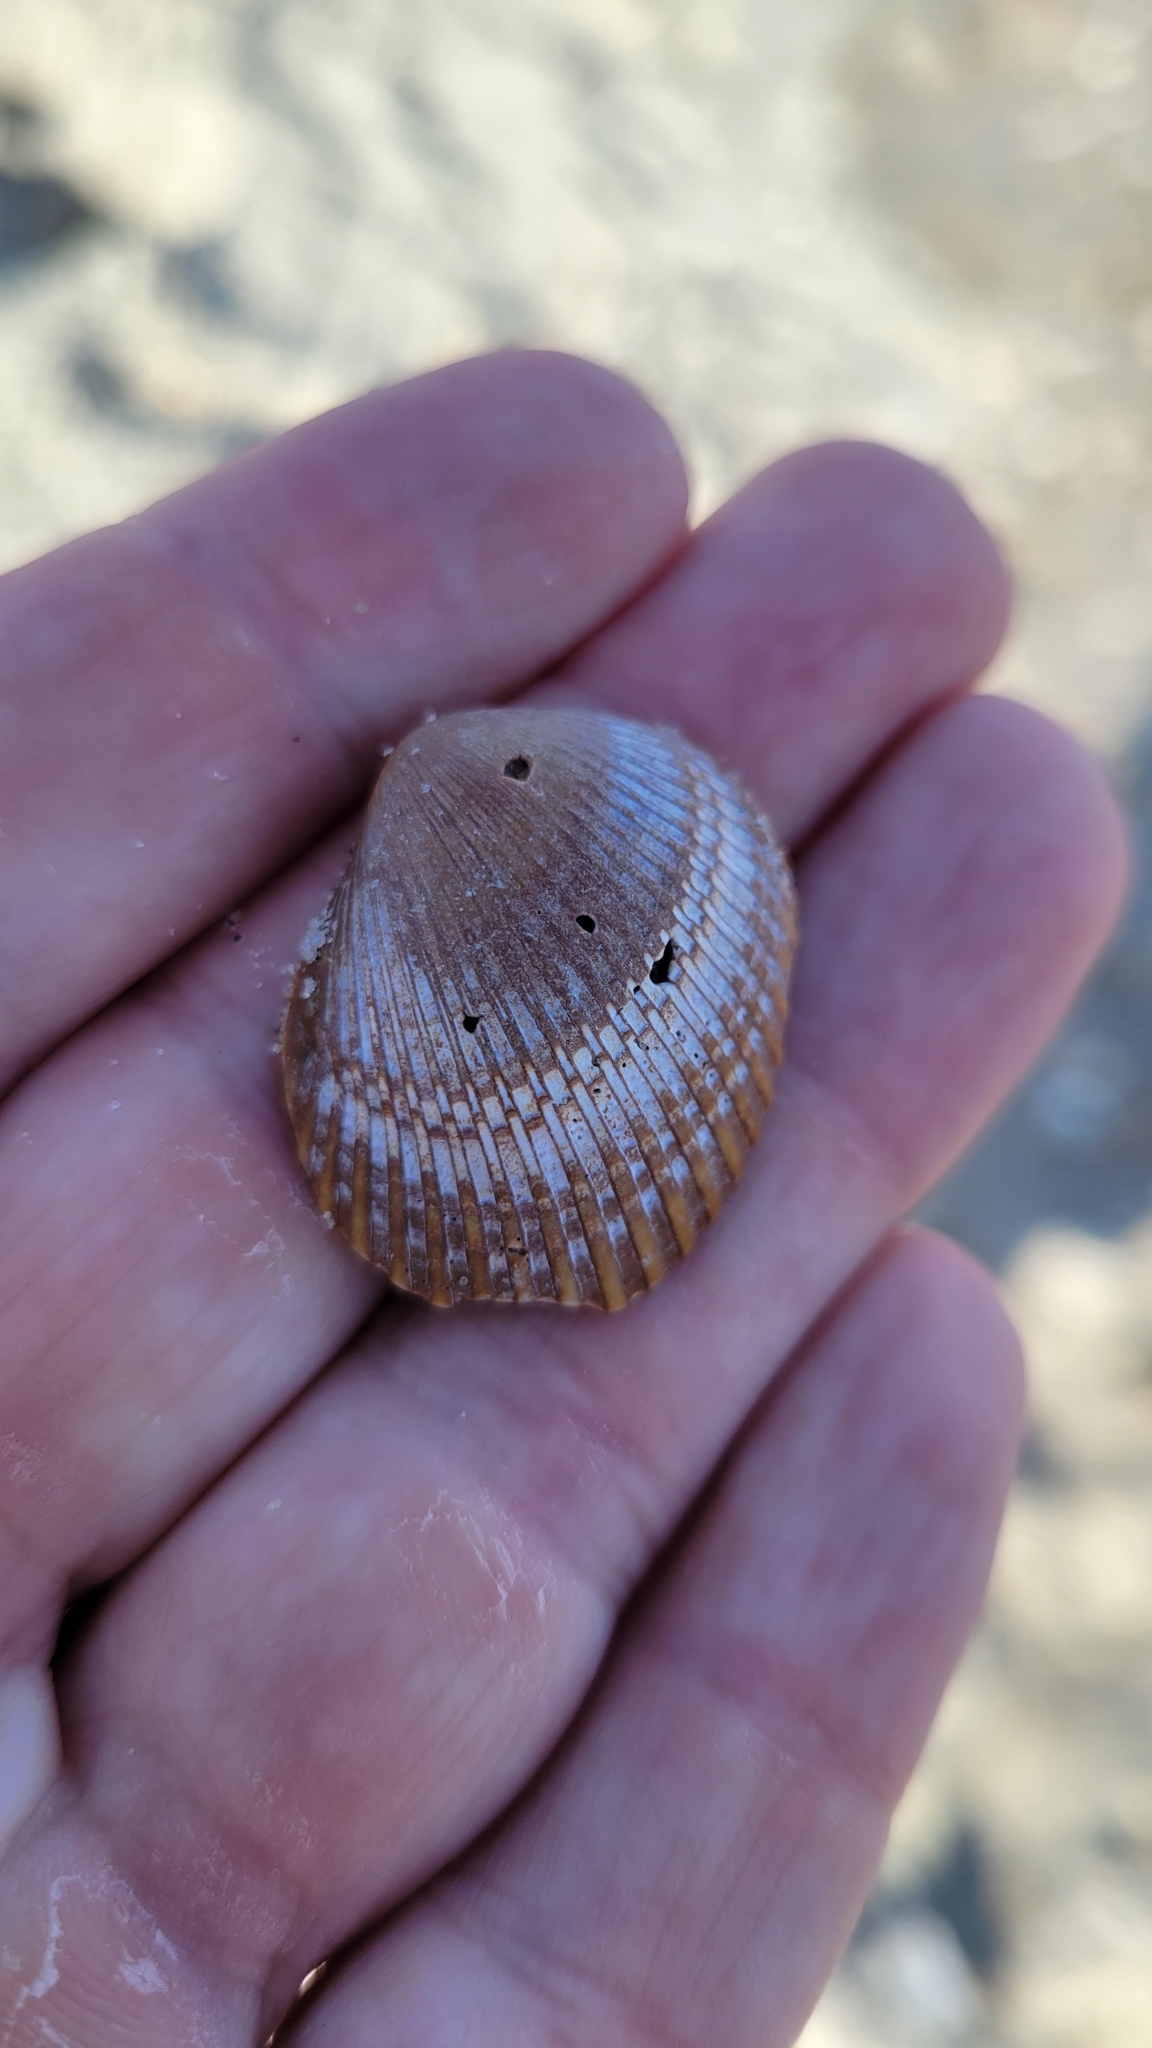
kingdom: Animalia
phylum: Mollusca
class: Bivalvia
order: Arcida
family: Arcidae
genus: Lunarca
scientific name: Lunarca ovalis
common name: Blood ark
